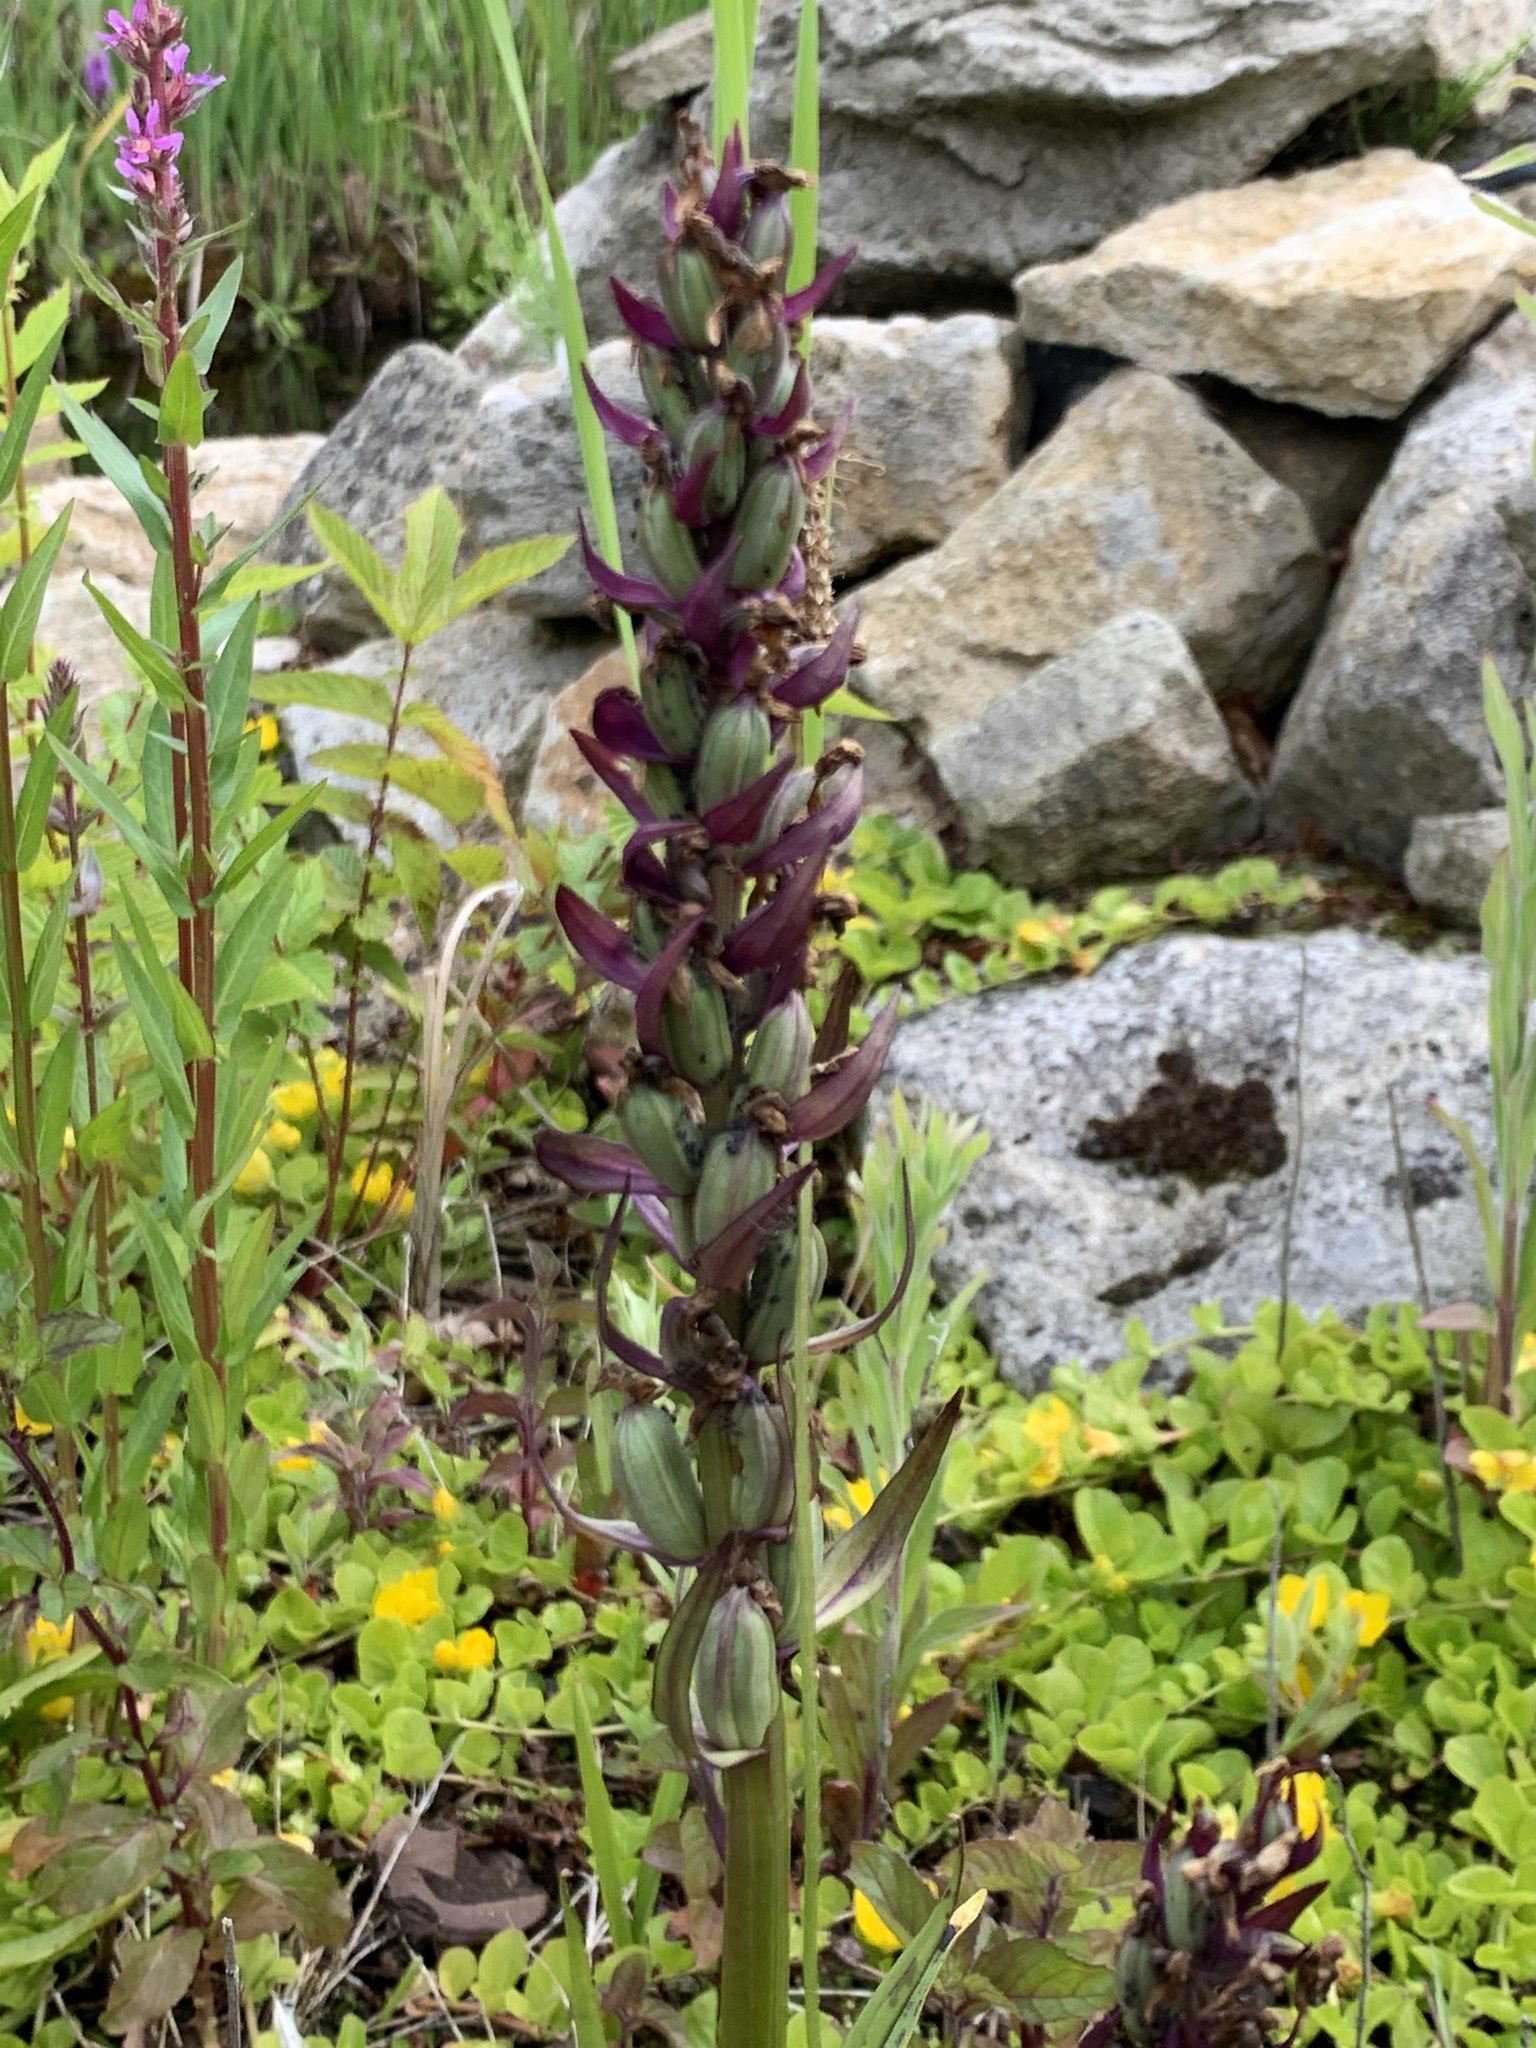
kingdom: Plantae
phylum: Tracheophyta
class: Liliopsida
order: Asparagales
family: Orchidaceae
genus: Dactylorhiza
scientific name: Dactylorhiza majalis
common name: Marsh orchid
